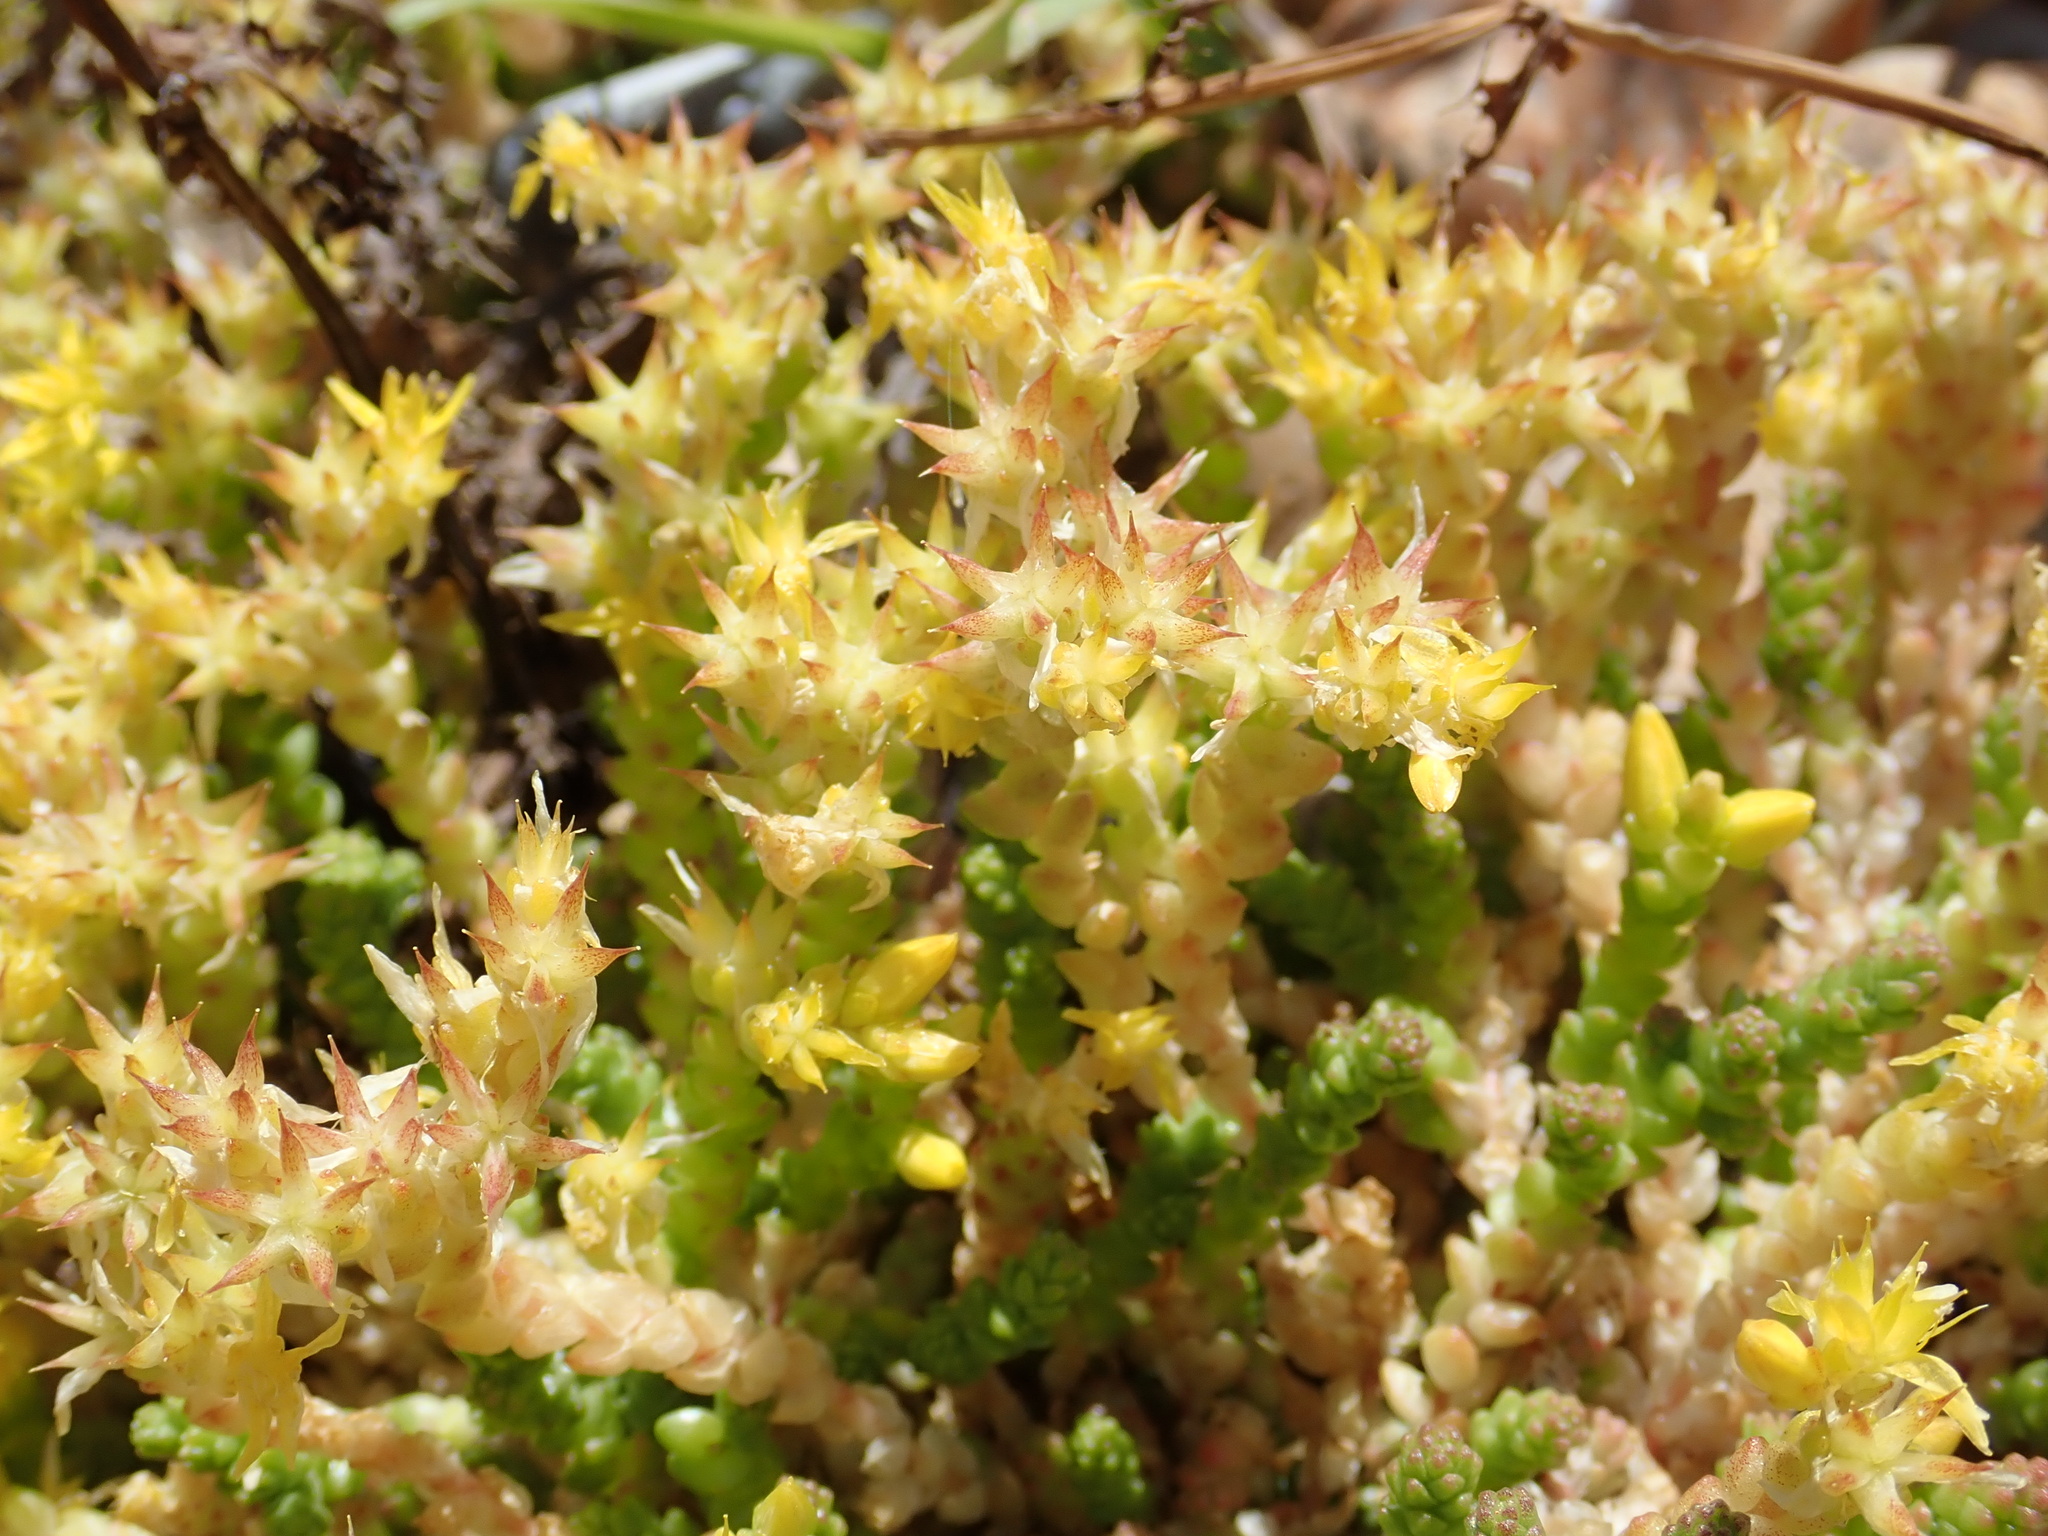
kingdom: Plantae
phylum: Tracheophyta
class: Magnoliopsida
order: Saxifragales
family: Crassulaceae
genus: Sedum
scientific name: Sedum acre
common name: Biting stonecrop
